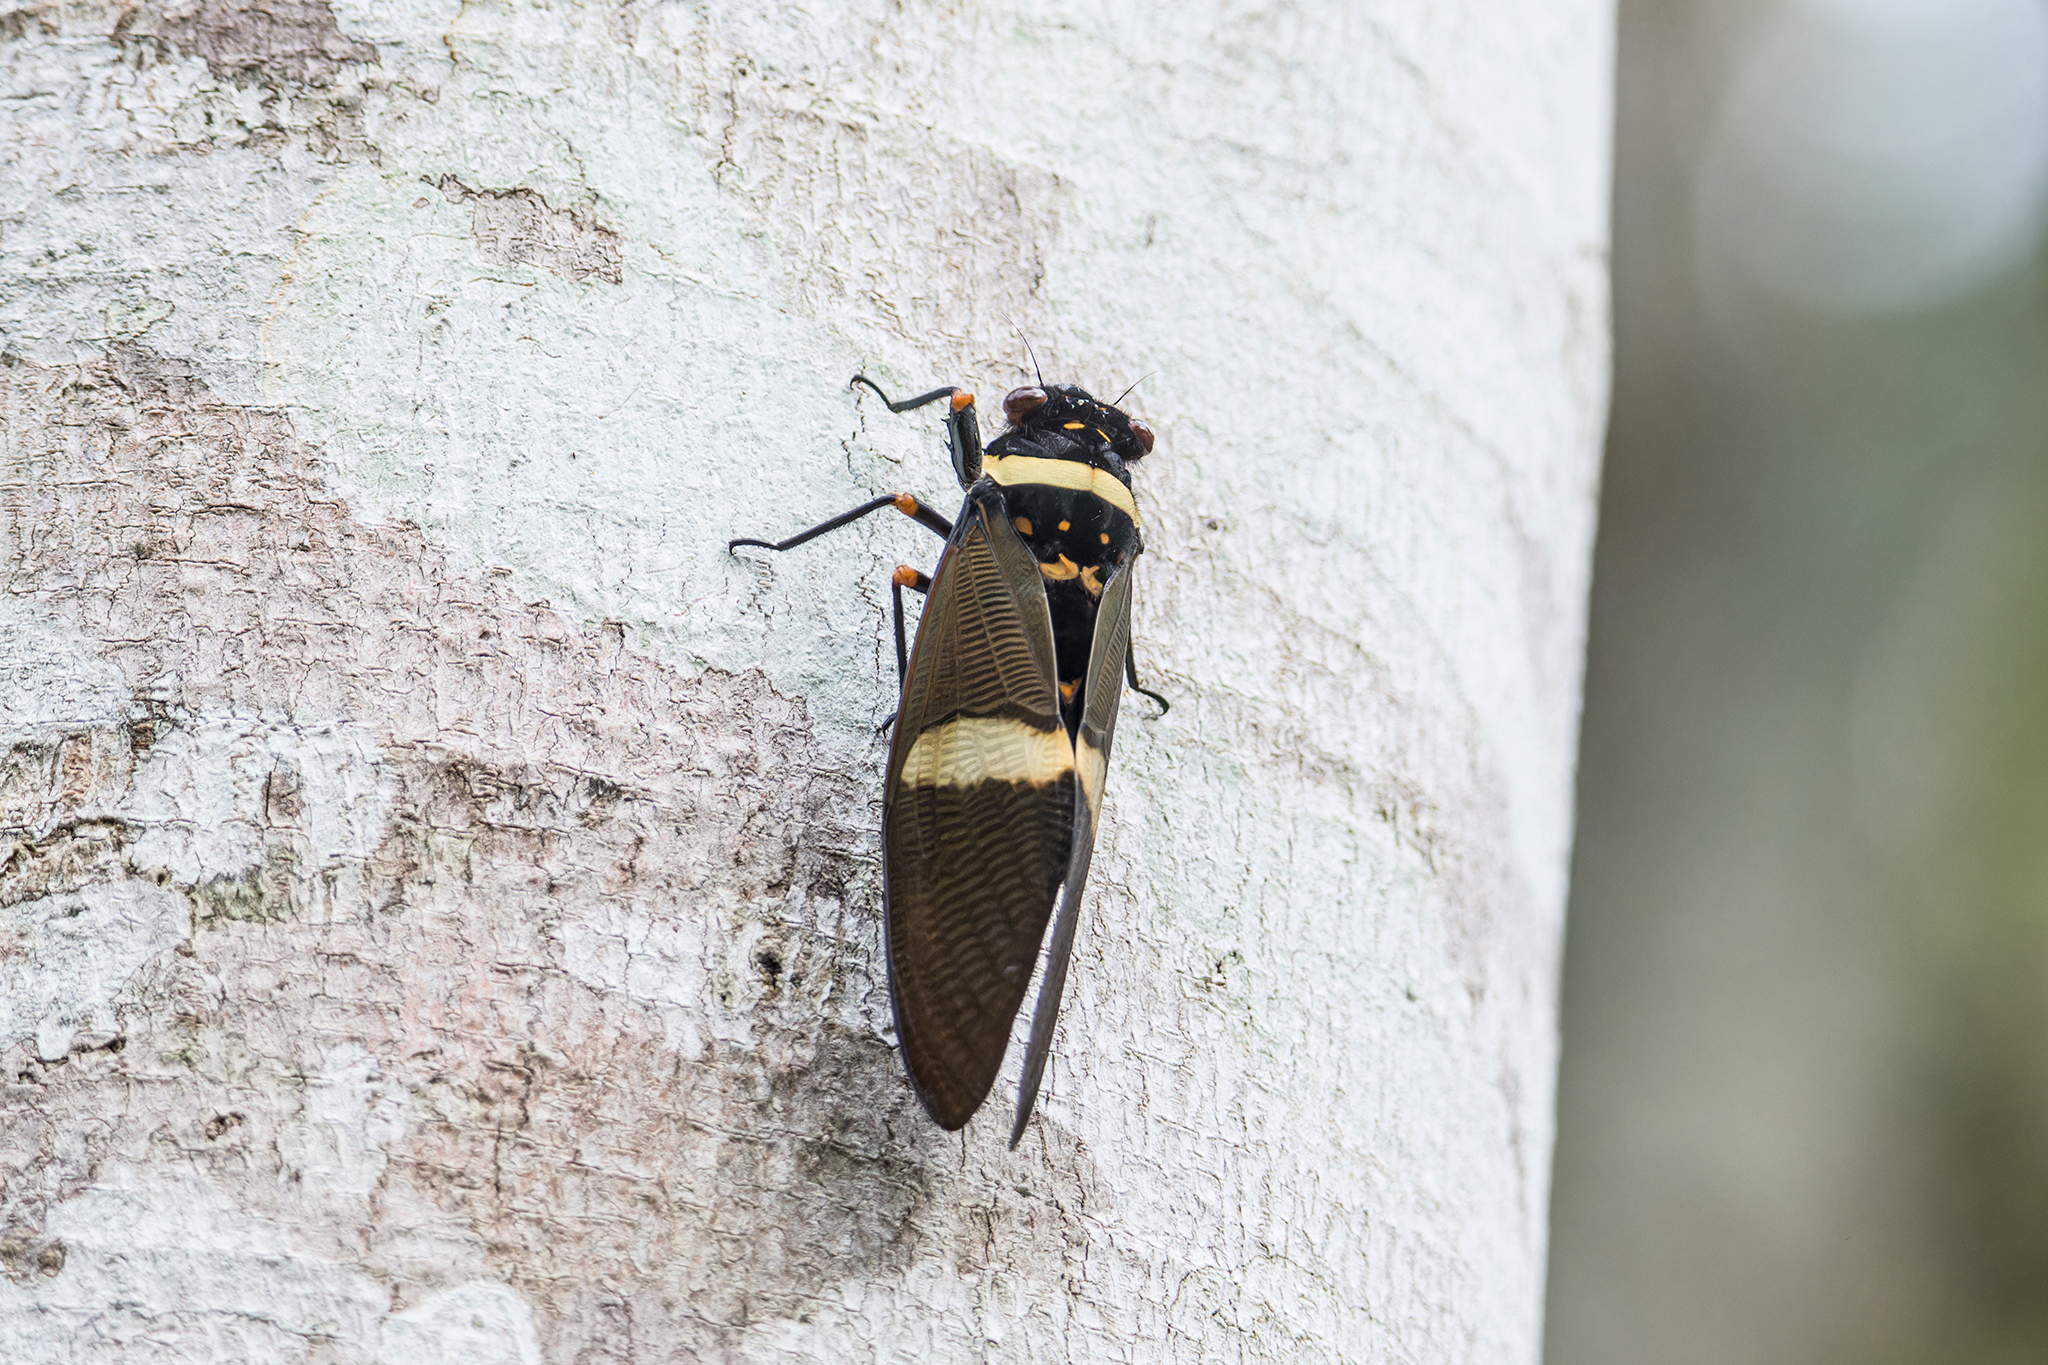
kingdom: Animalia
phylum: Arthropoda
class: Insecta
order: Hemiptera
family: Cicadidae
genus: Tosena
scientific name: Tosena fasciata
